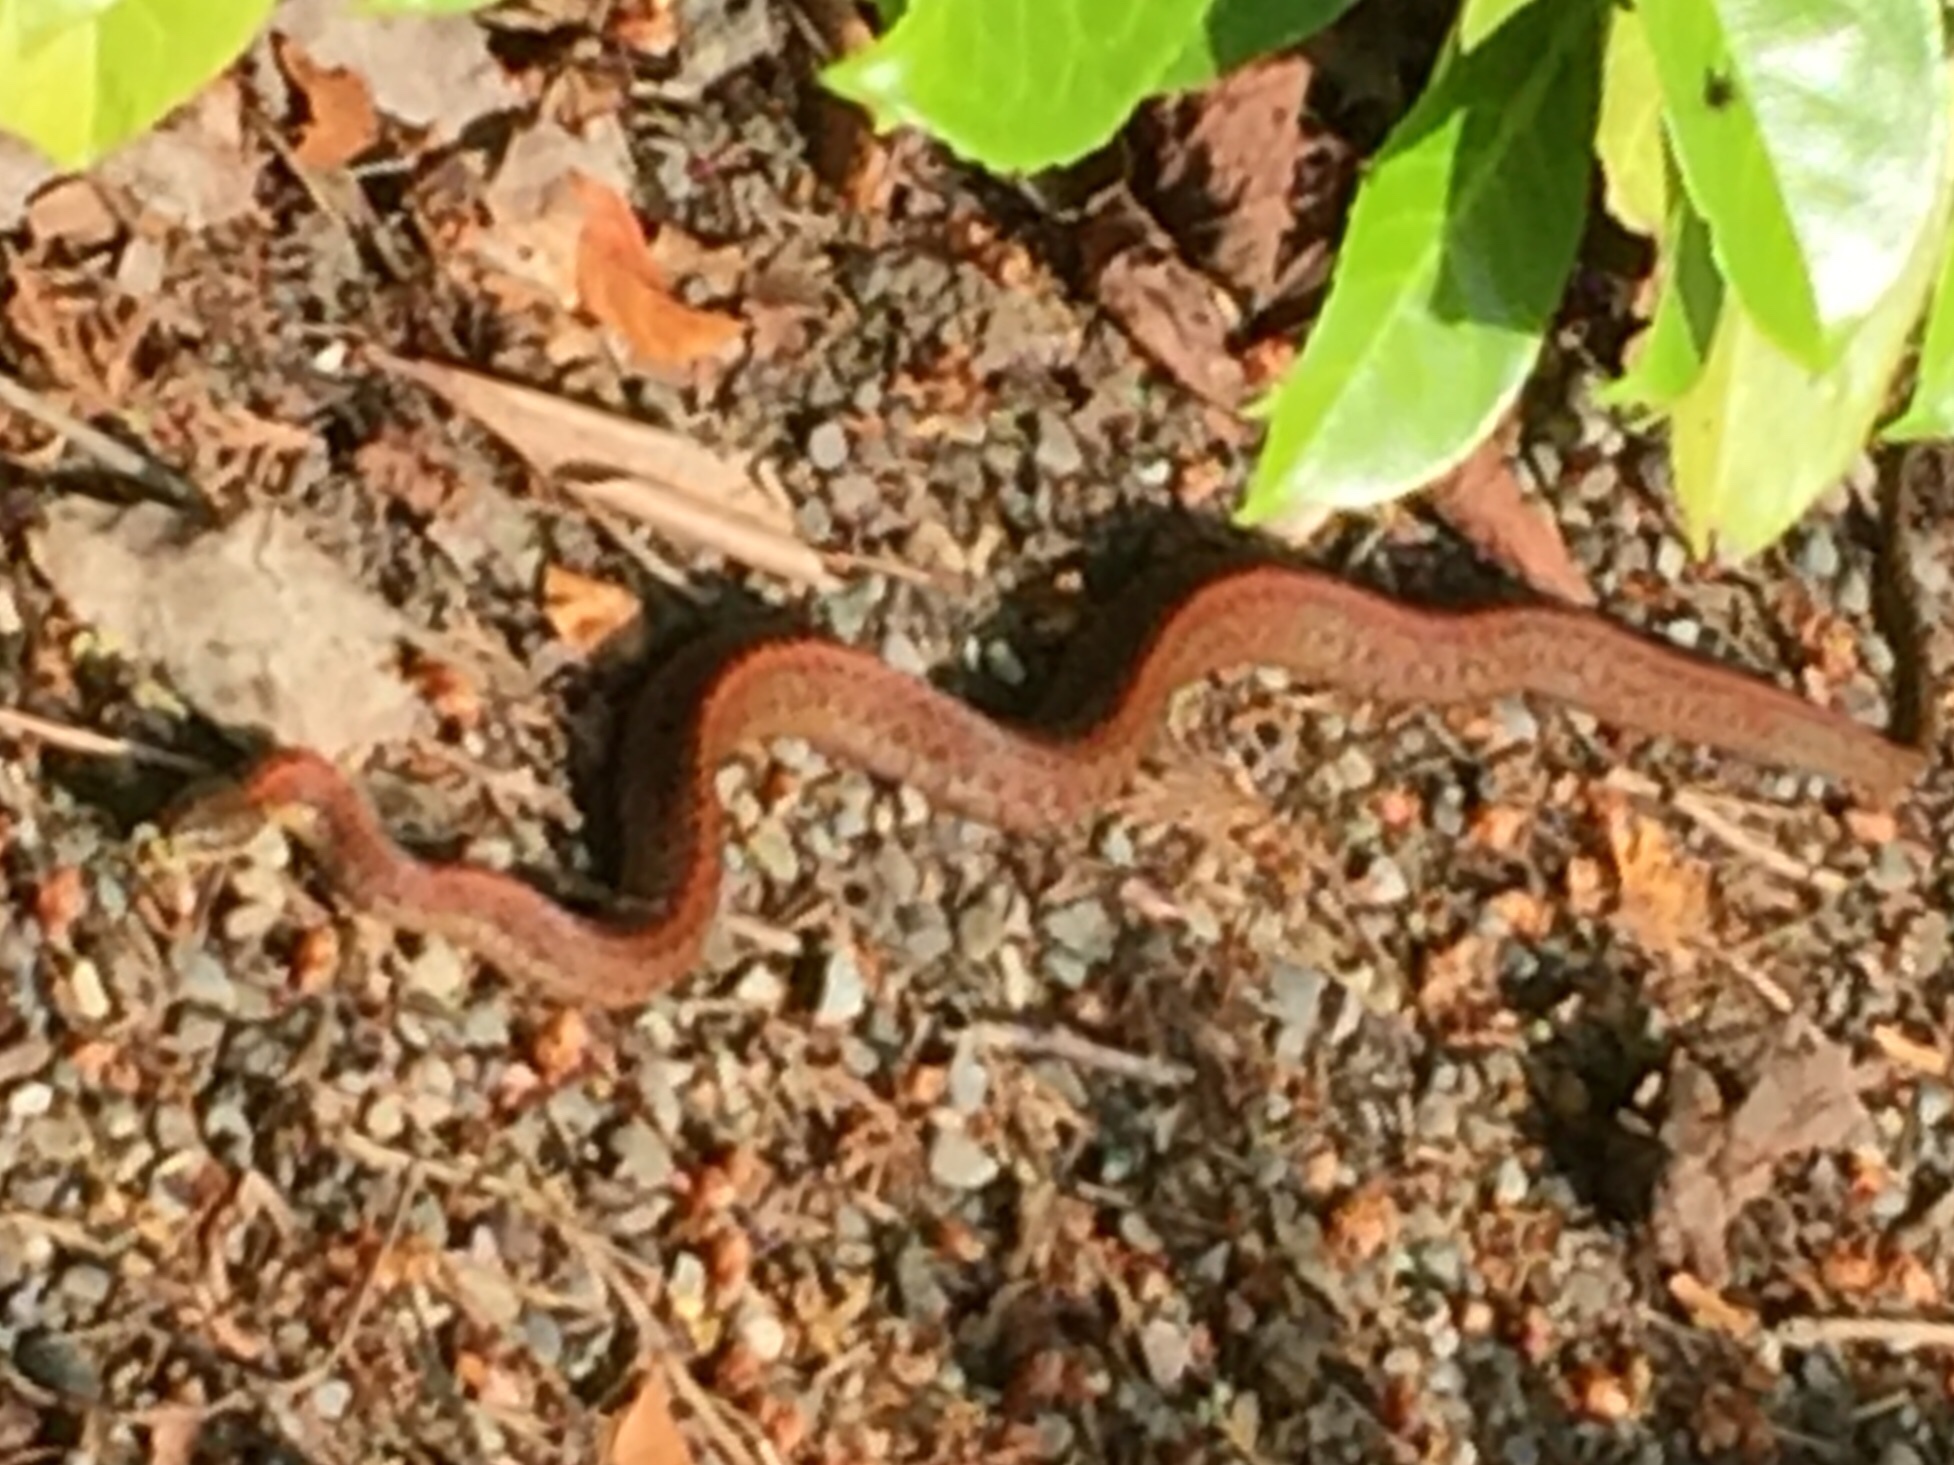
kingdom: Animalia
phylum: Chordata
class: Squamata
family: Colubridae
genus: Thamnophis
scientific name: Thamnophis ordinoides
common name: Northwestern garter snake
